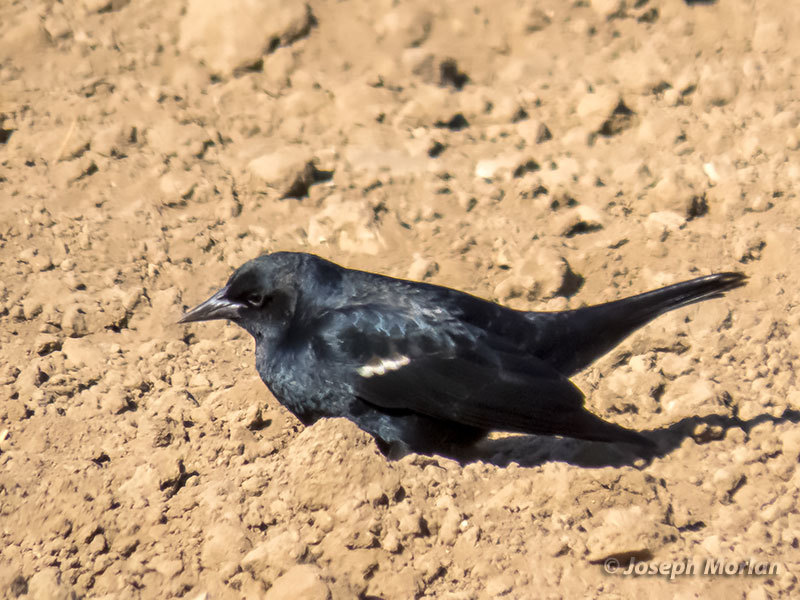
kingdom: Animalia
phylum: Chordata
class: Aves
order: Passeriformes
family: Icteridae
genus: Agelaius
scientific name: Agelaius tricolor
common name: Tricolored blackbird
